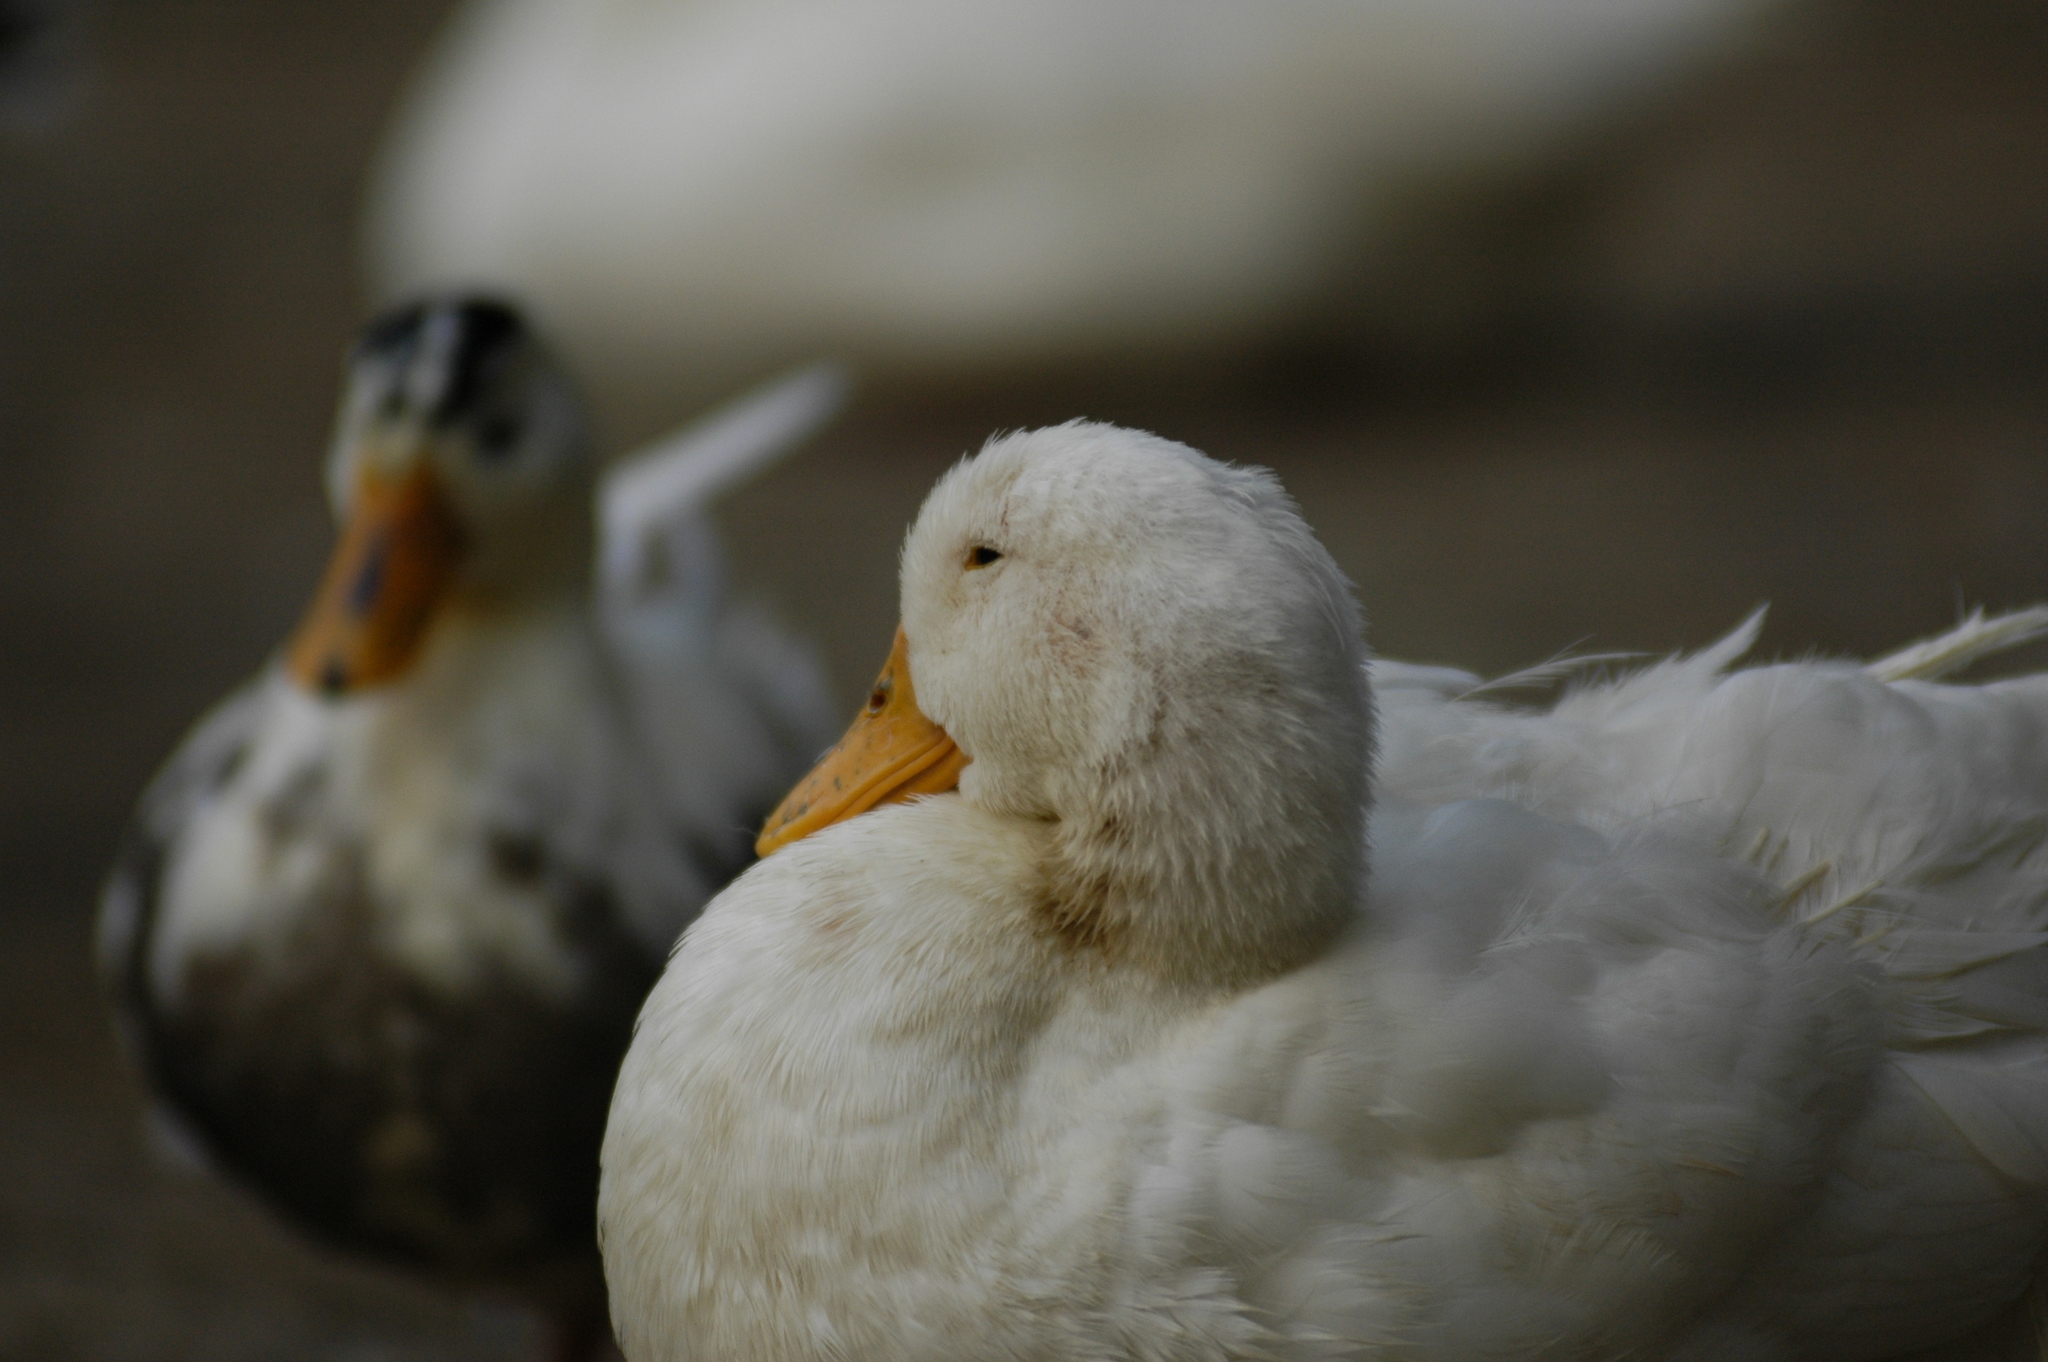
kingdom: Animalia
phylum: Chordata
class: Aves
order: Anseriformes
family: Anatidae
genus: Anas
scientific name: Anas platyrhynchos
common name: Mallard
